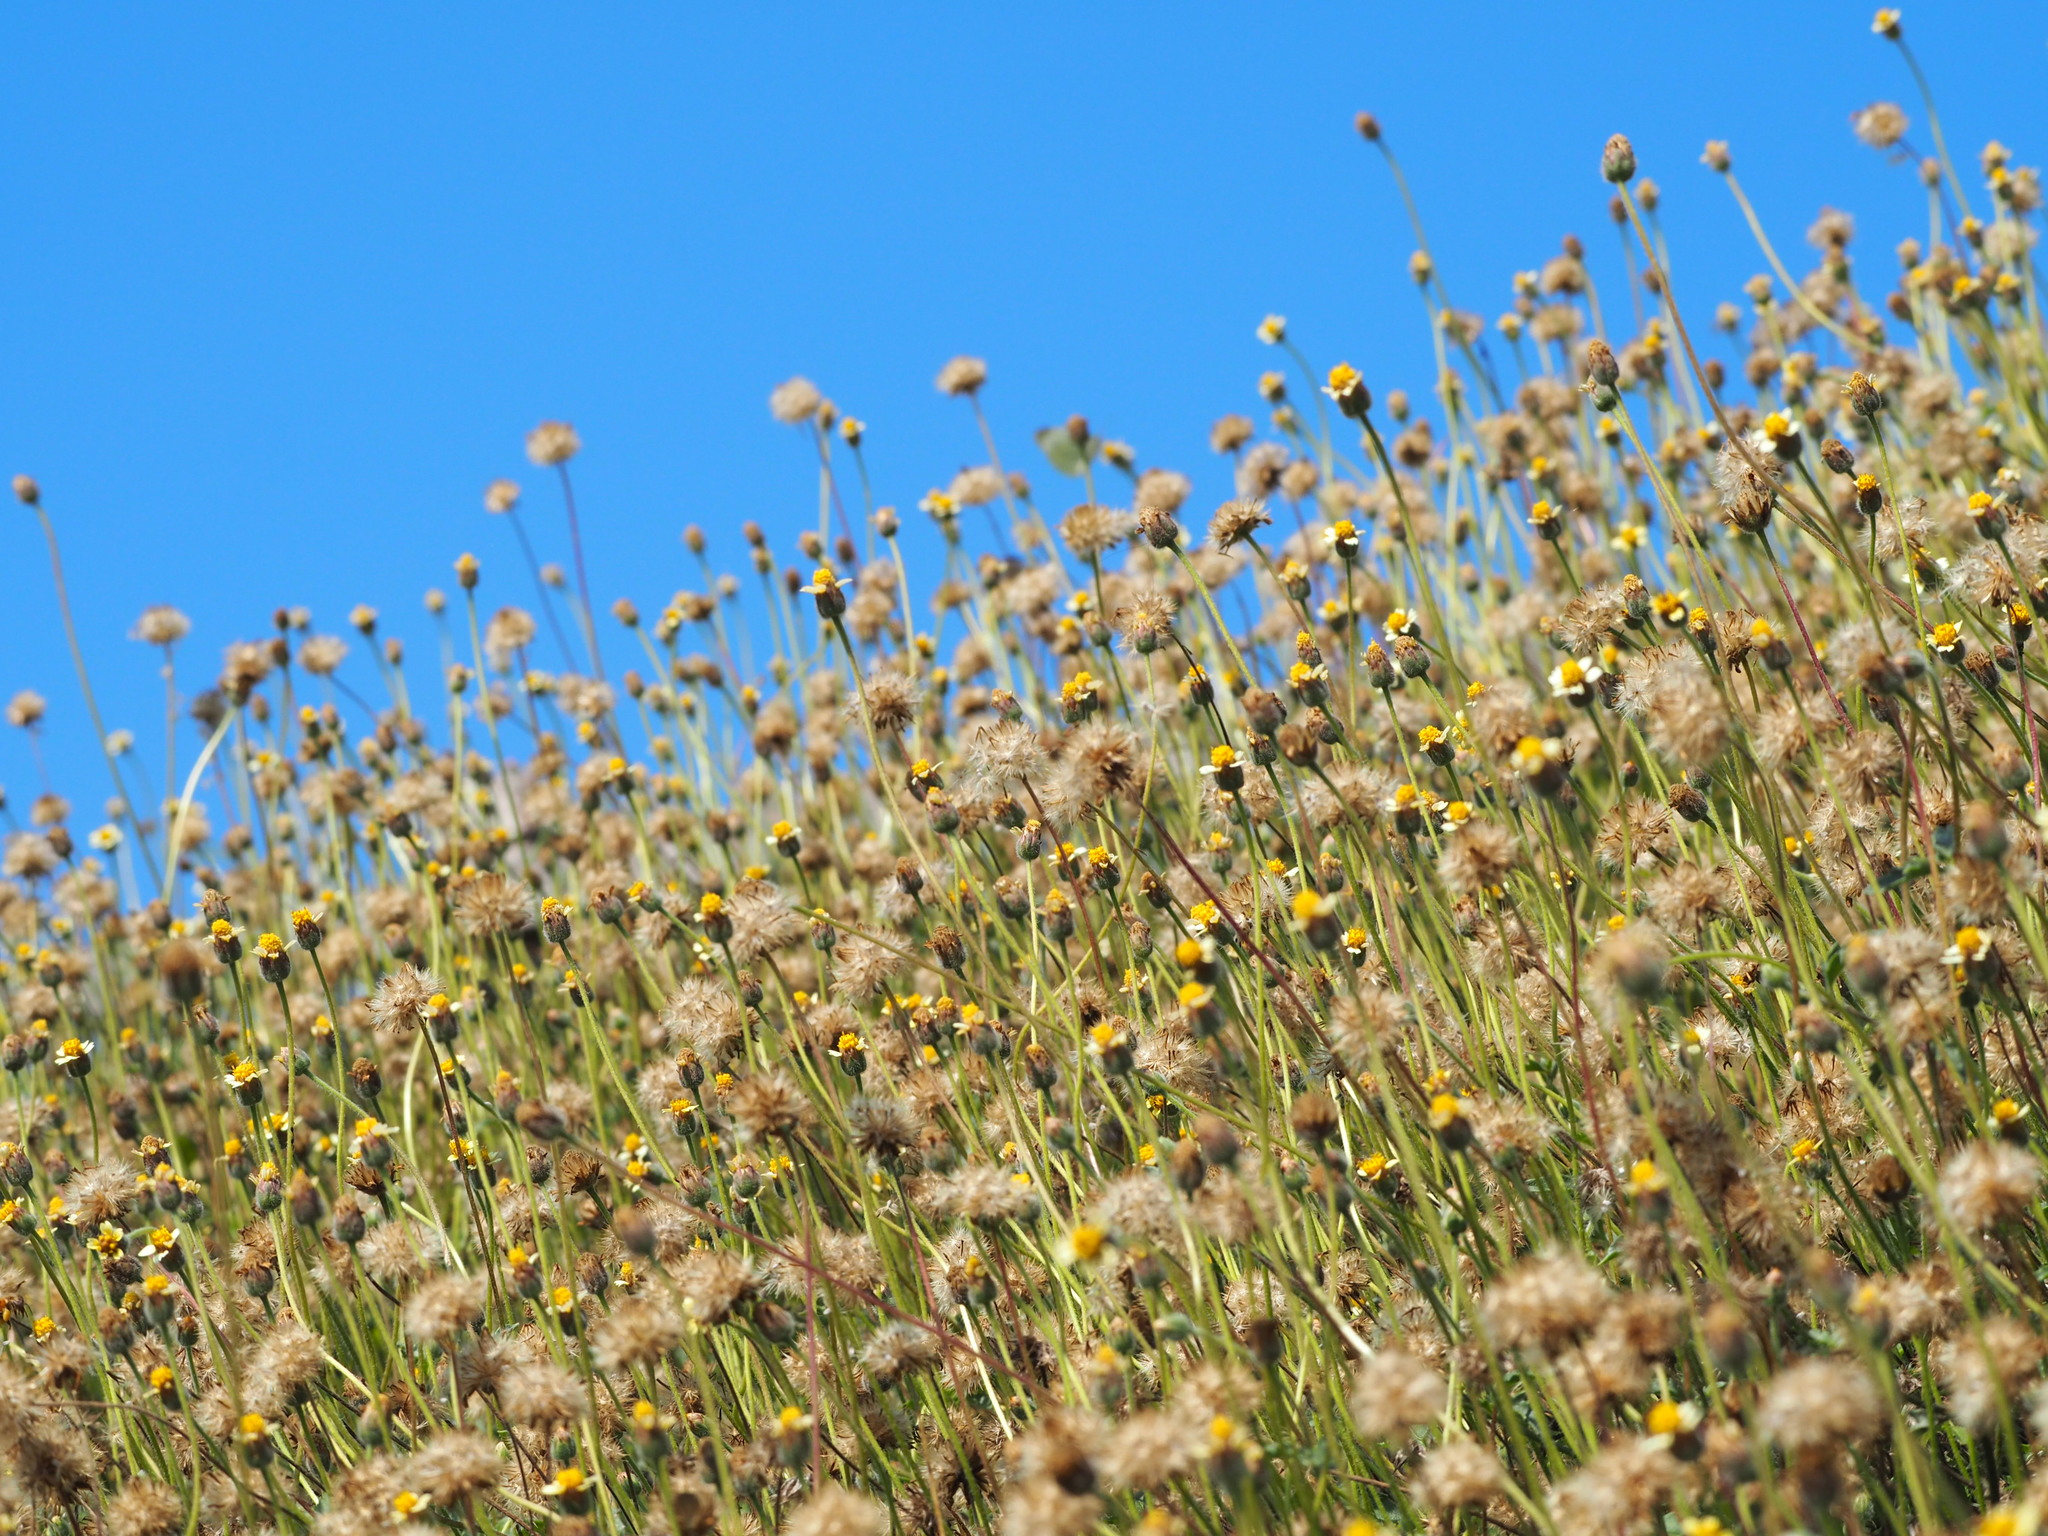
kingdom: Plantae
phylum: Tracheophyta
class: Magnoliopsida
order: Asterales
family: Asteraceae
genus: Tridax
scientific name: Tridax procumbens
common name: Coatbuttons
